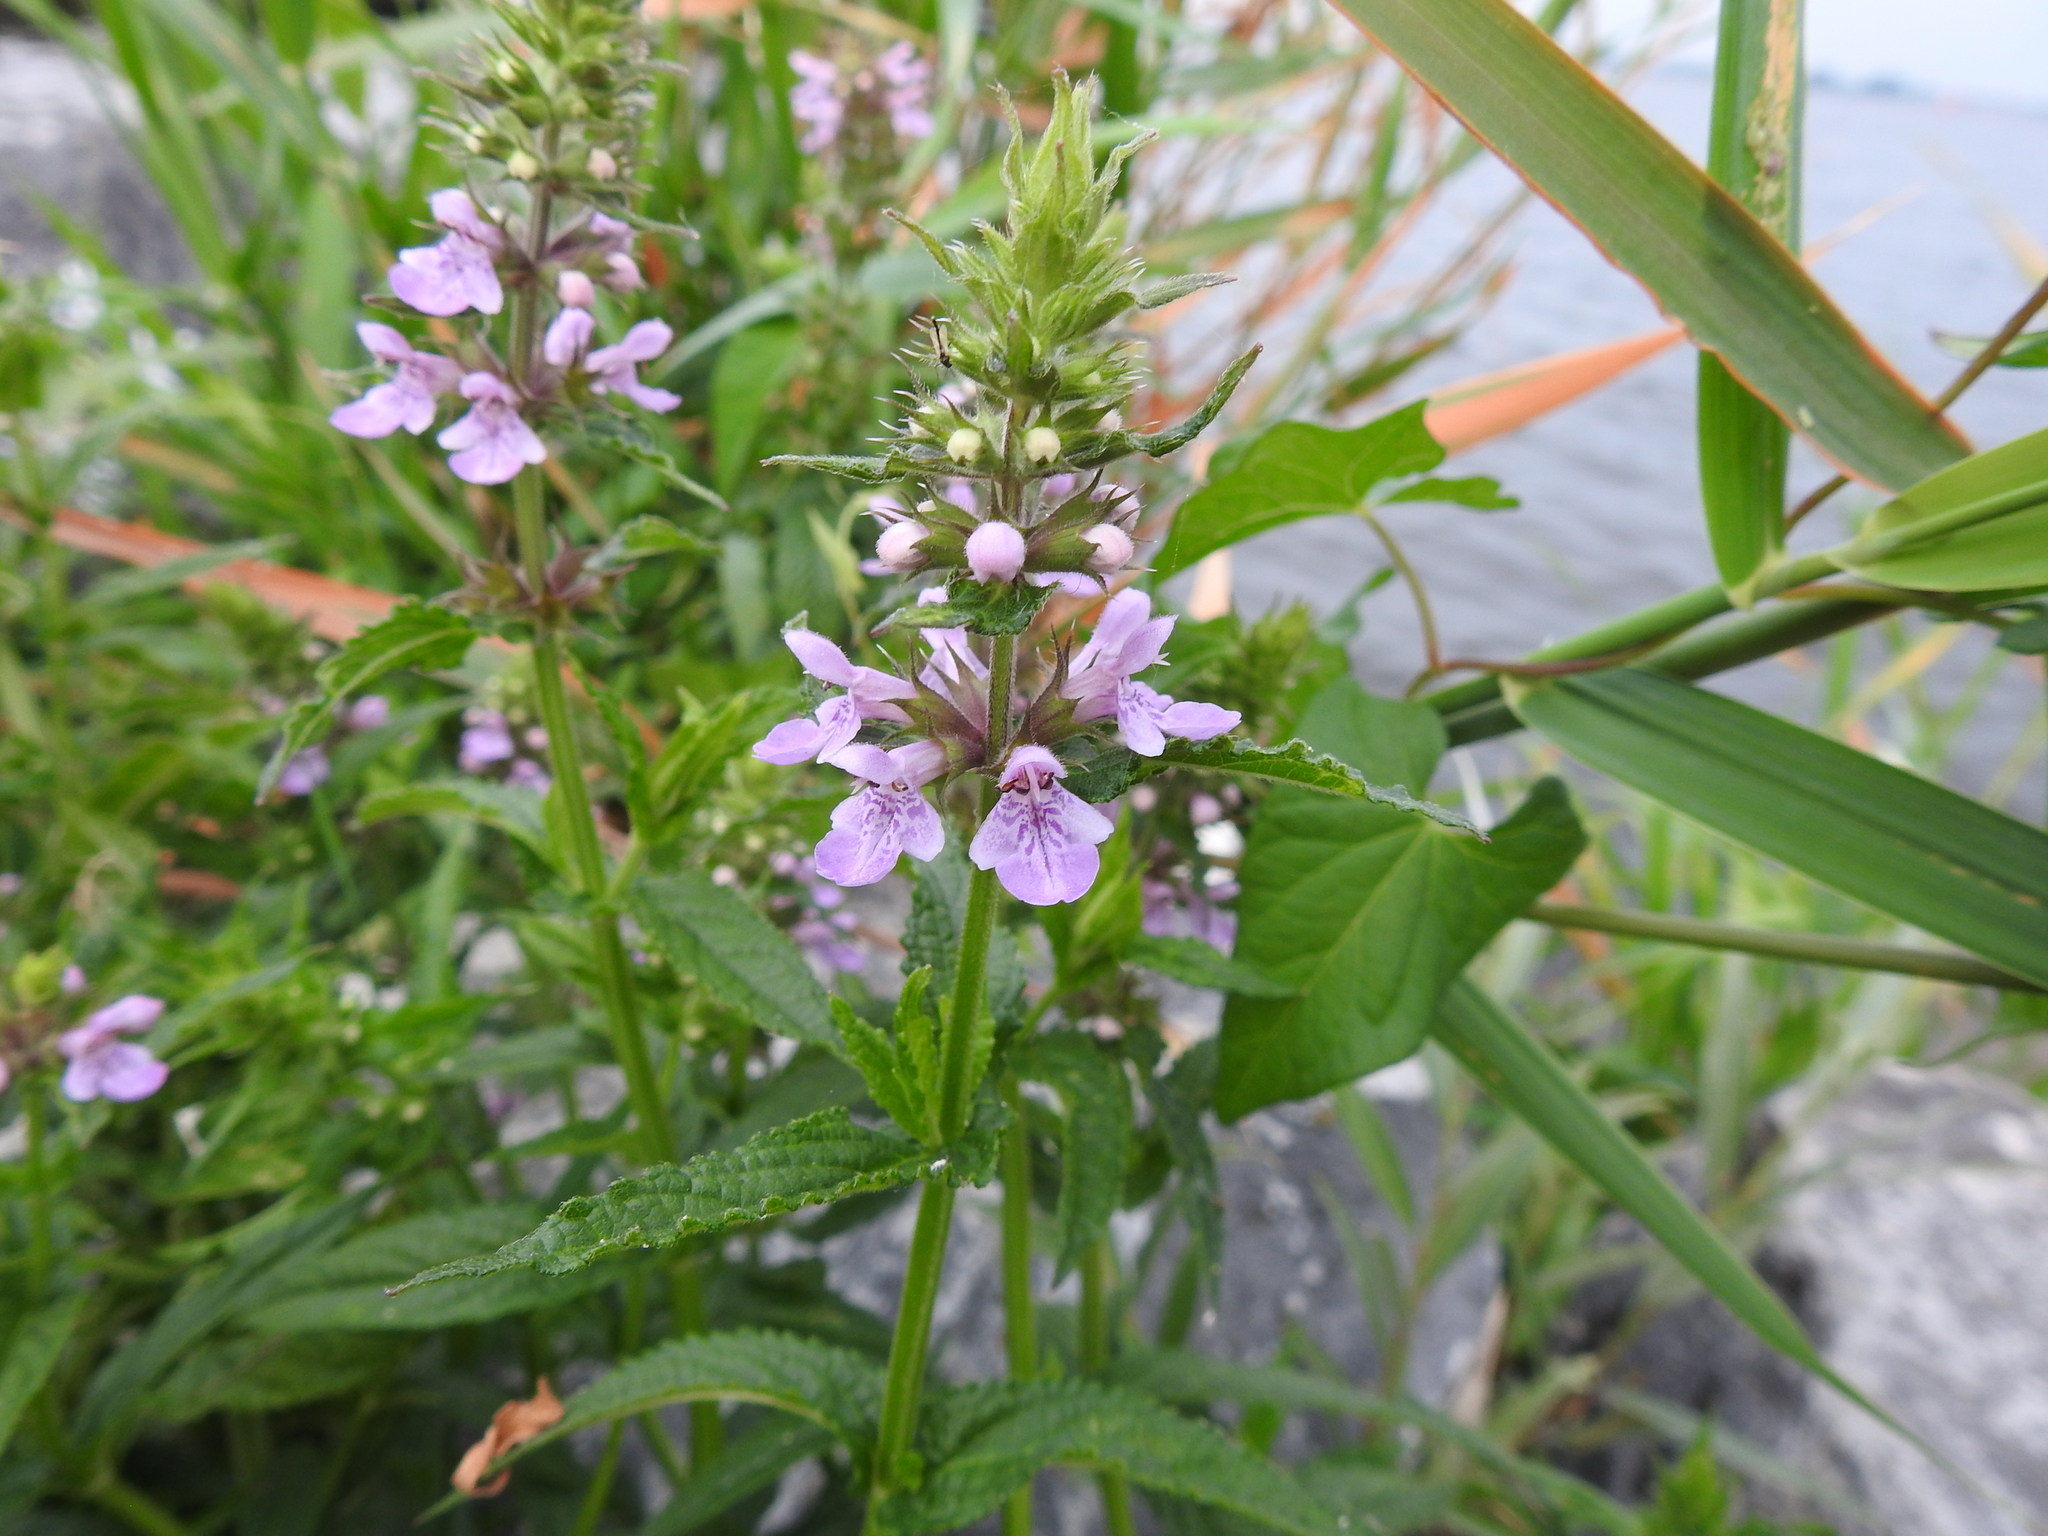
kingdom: Plantae
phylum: Tracheophyta
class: Magnoliopsida
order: Lamiales
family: Lamiaceae
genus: Stachys
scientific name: Stachys palustris
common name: Marsh woundwort
